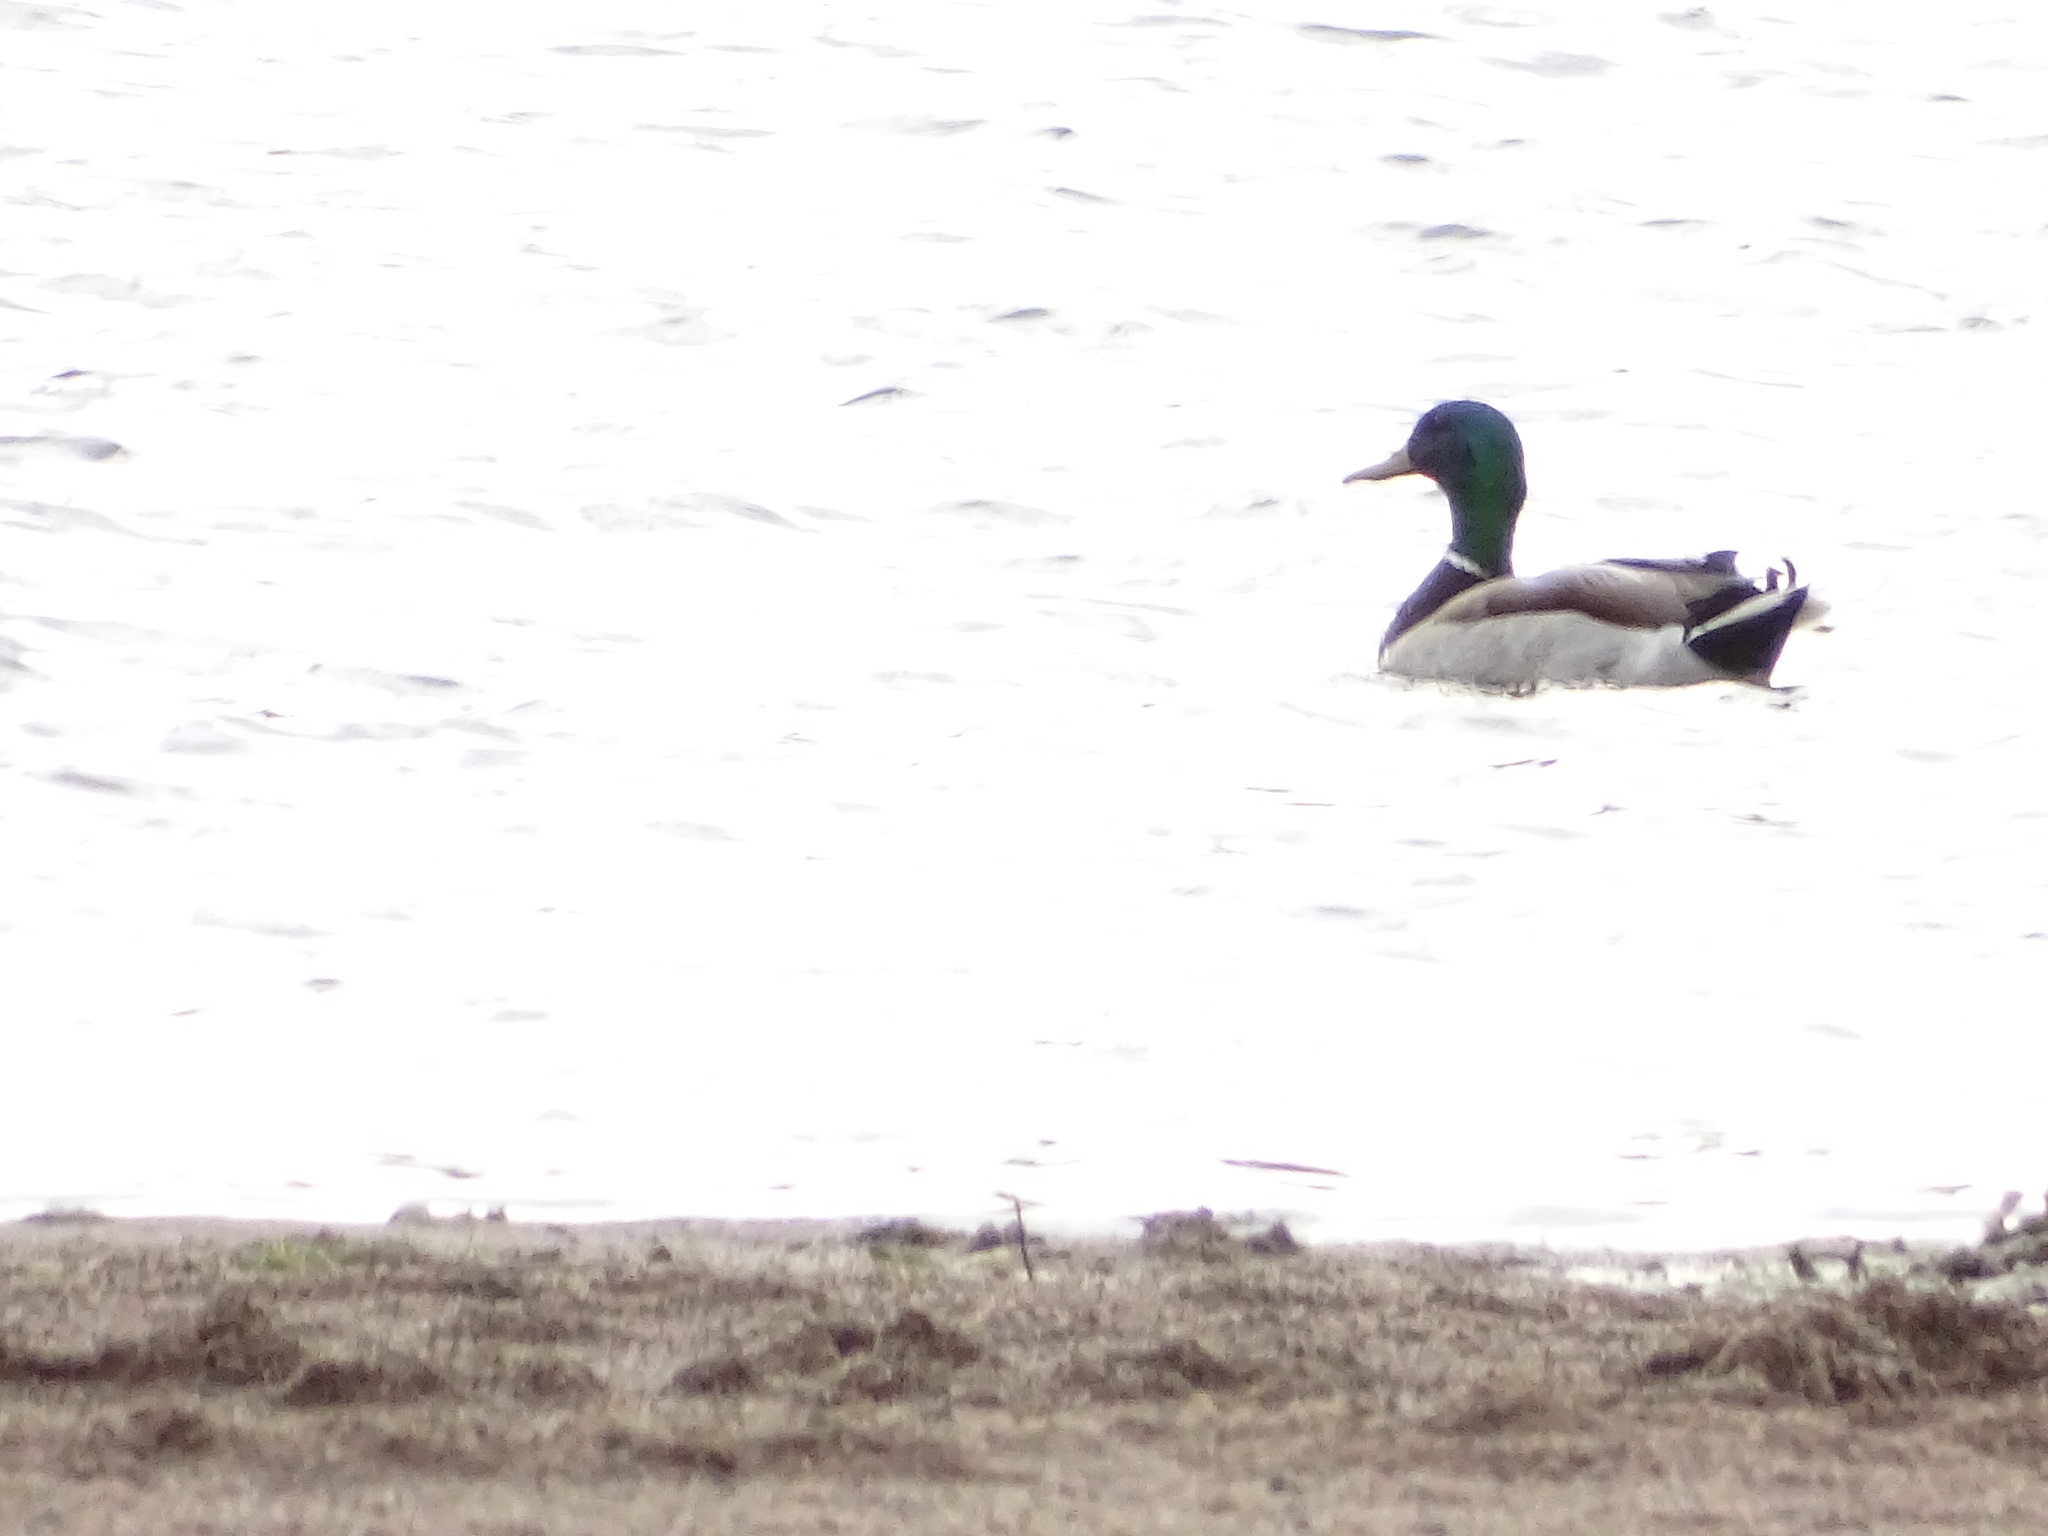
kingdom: Animalia
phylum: Chordata
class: Aves
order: Anseriformes
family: Anatidae
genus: Anas
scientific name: Anas platyrhynchos
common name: Mallard
